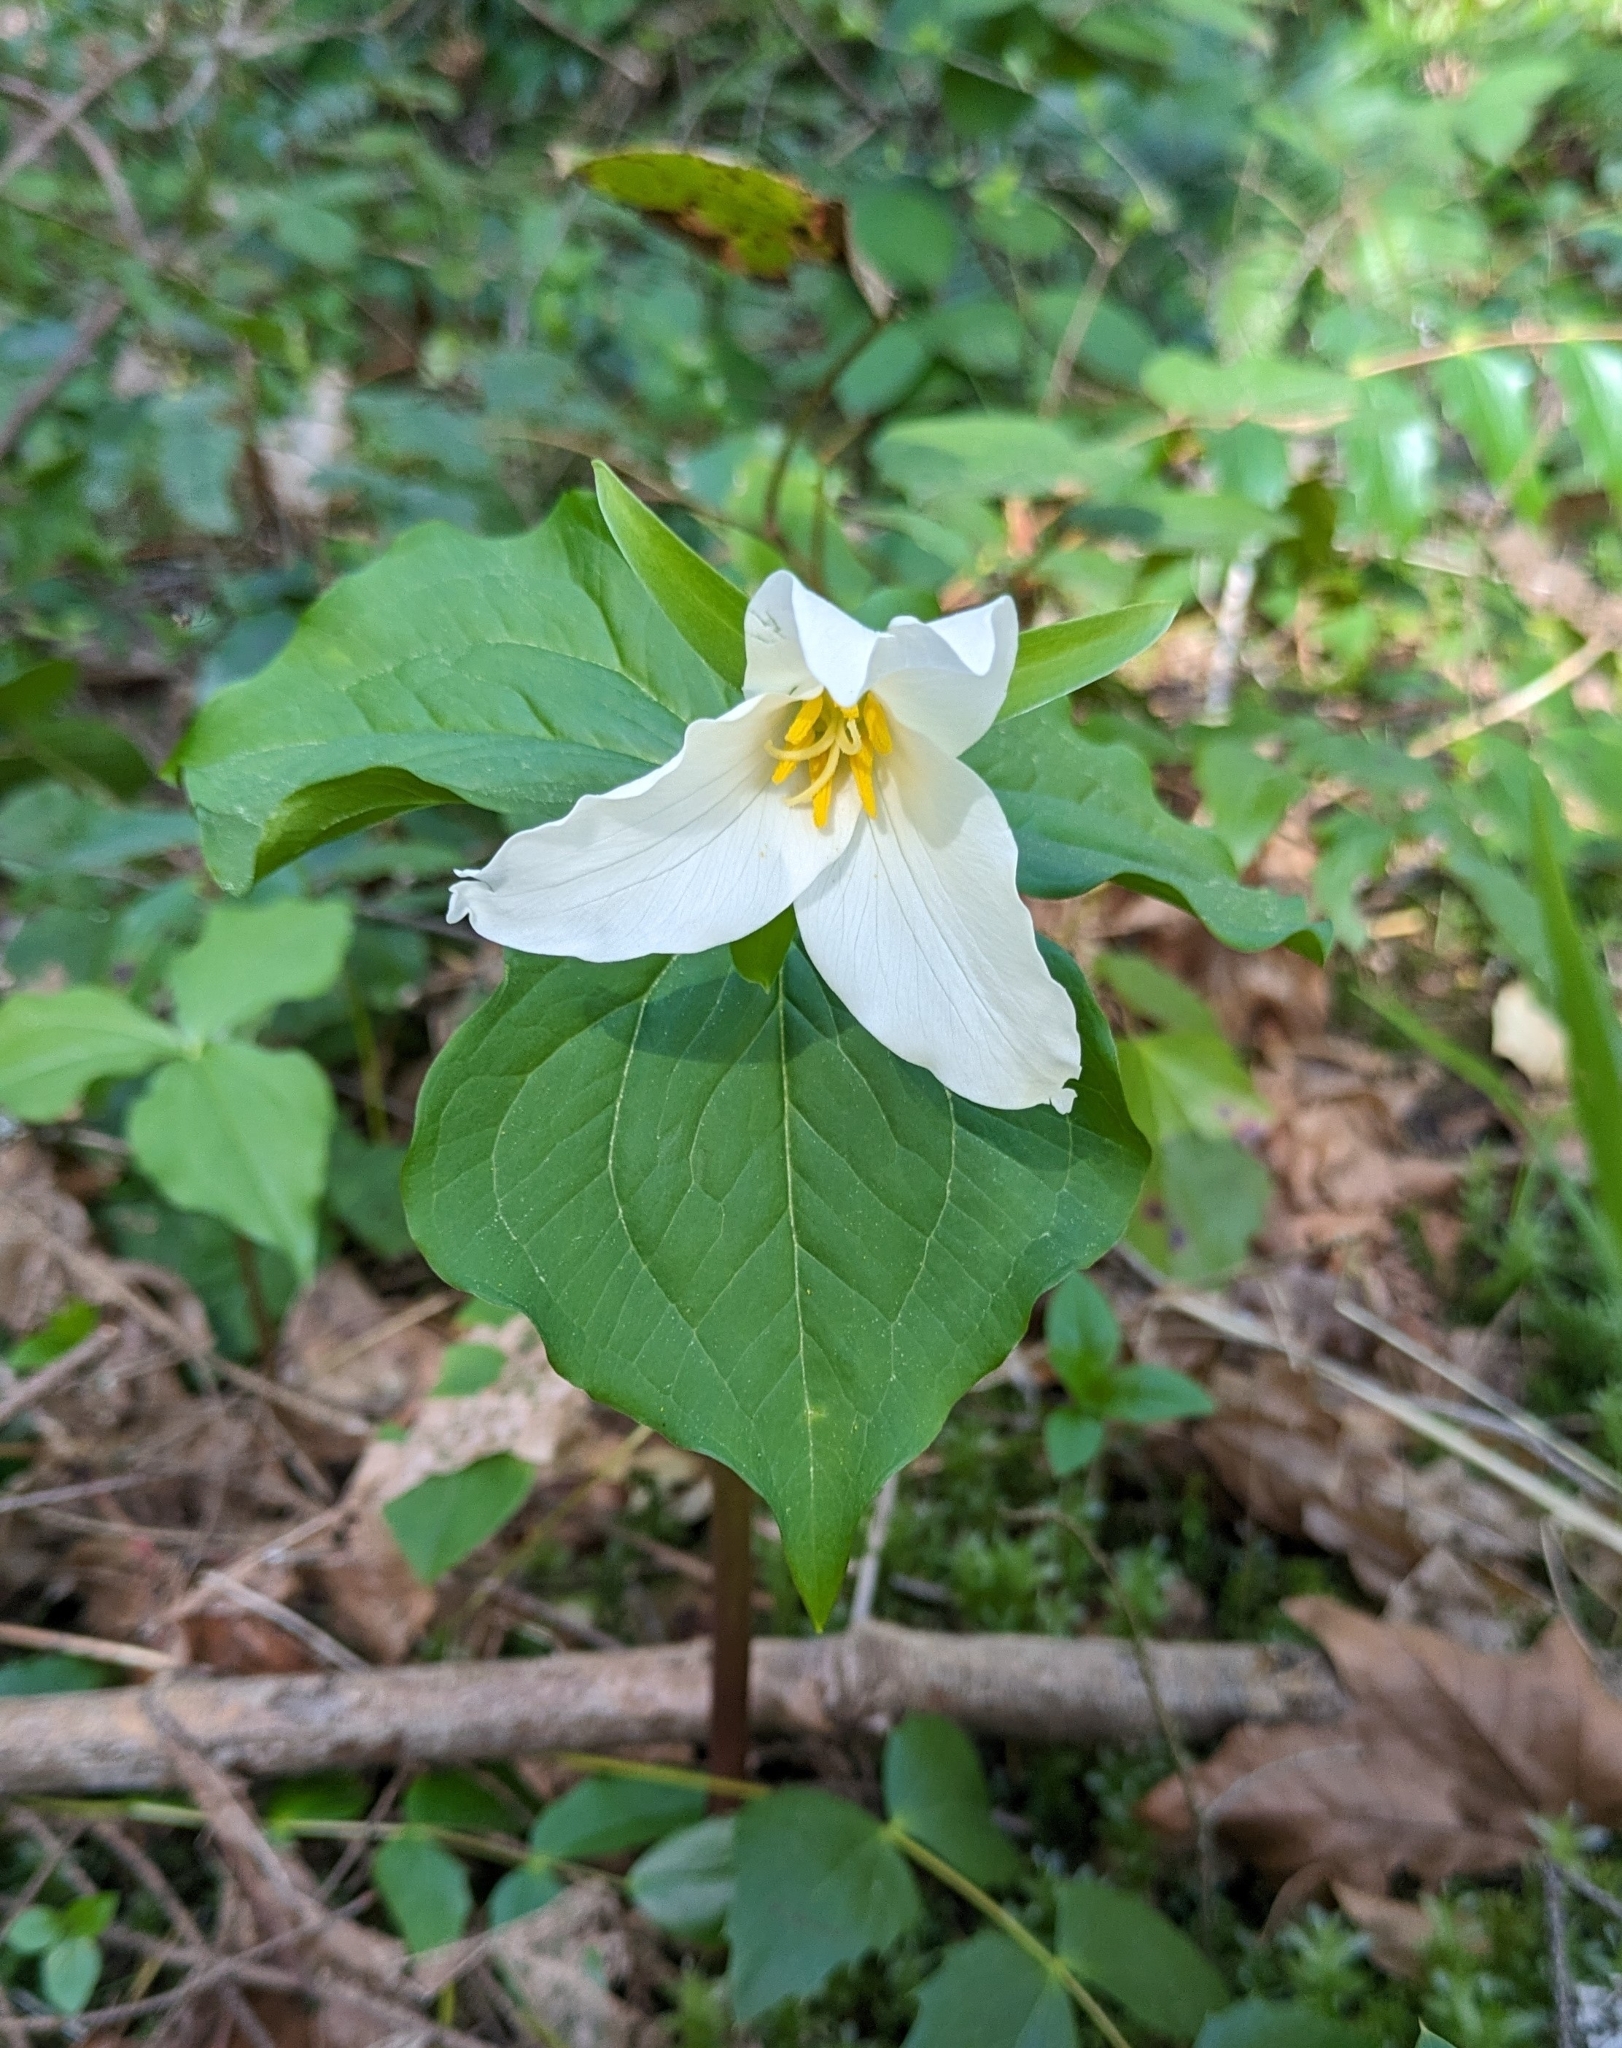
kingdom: Plantae
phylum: Tracheophyta
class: Liliopsida
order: Liliales
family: Melanthiaceae
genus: Trillium
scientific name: Trillium ovatum
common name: Pacific trillium
